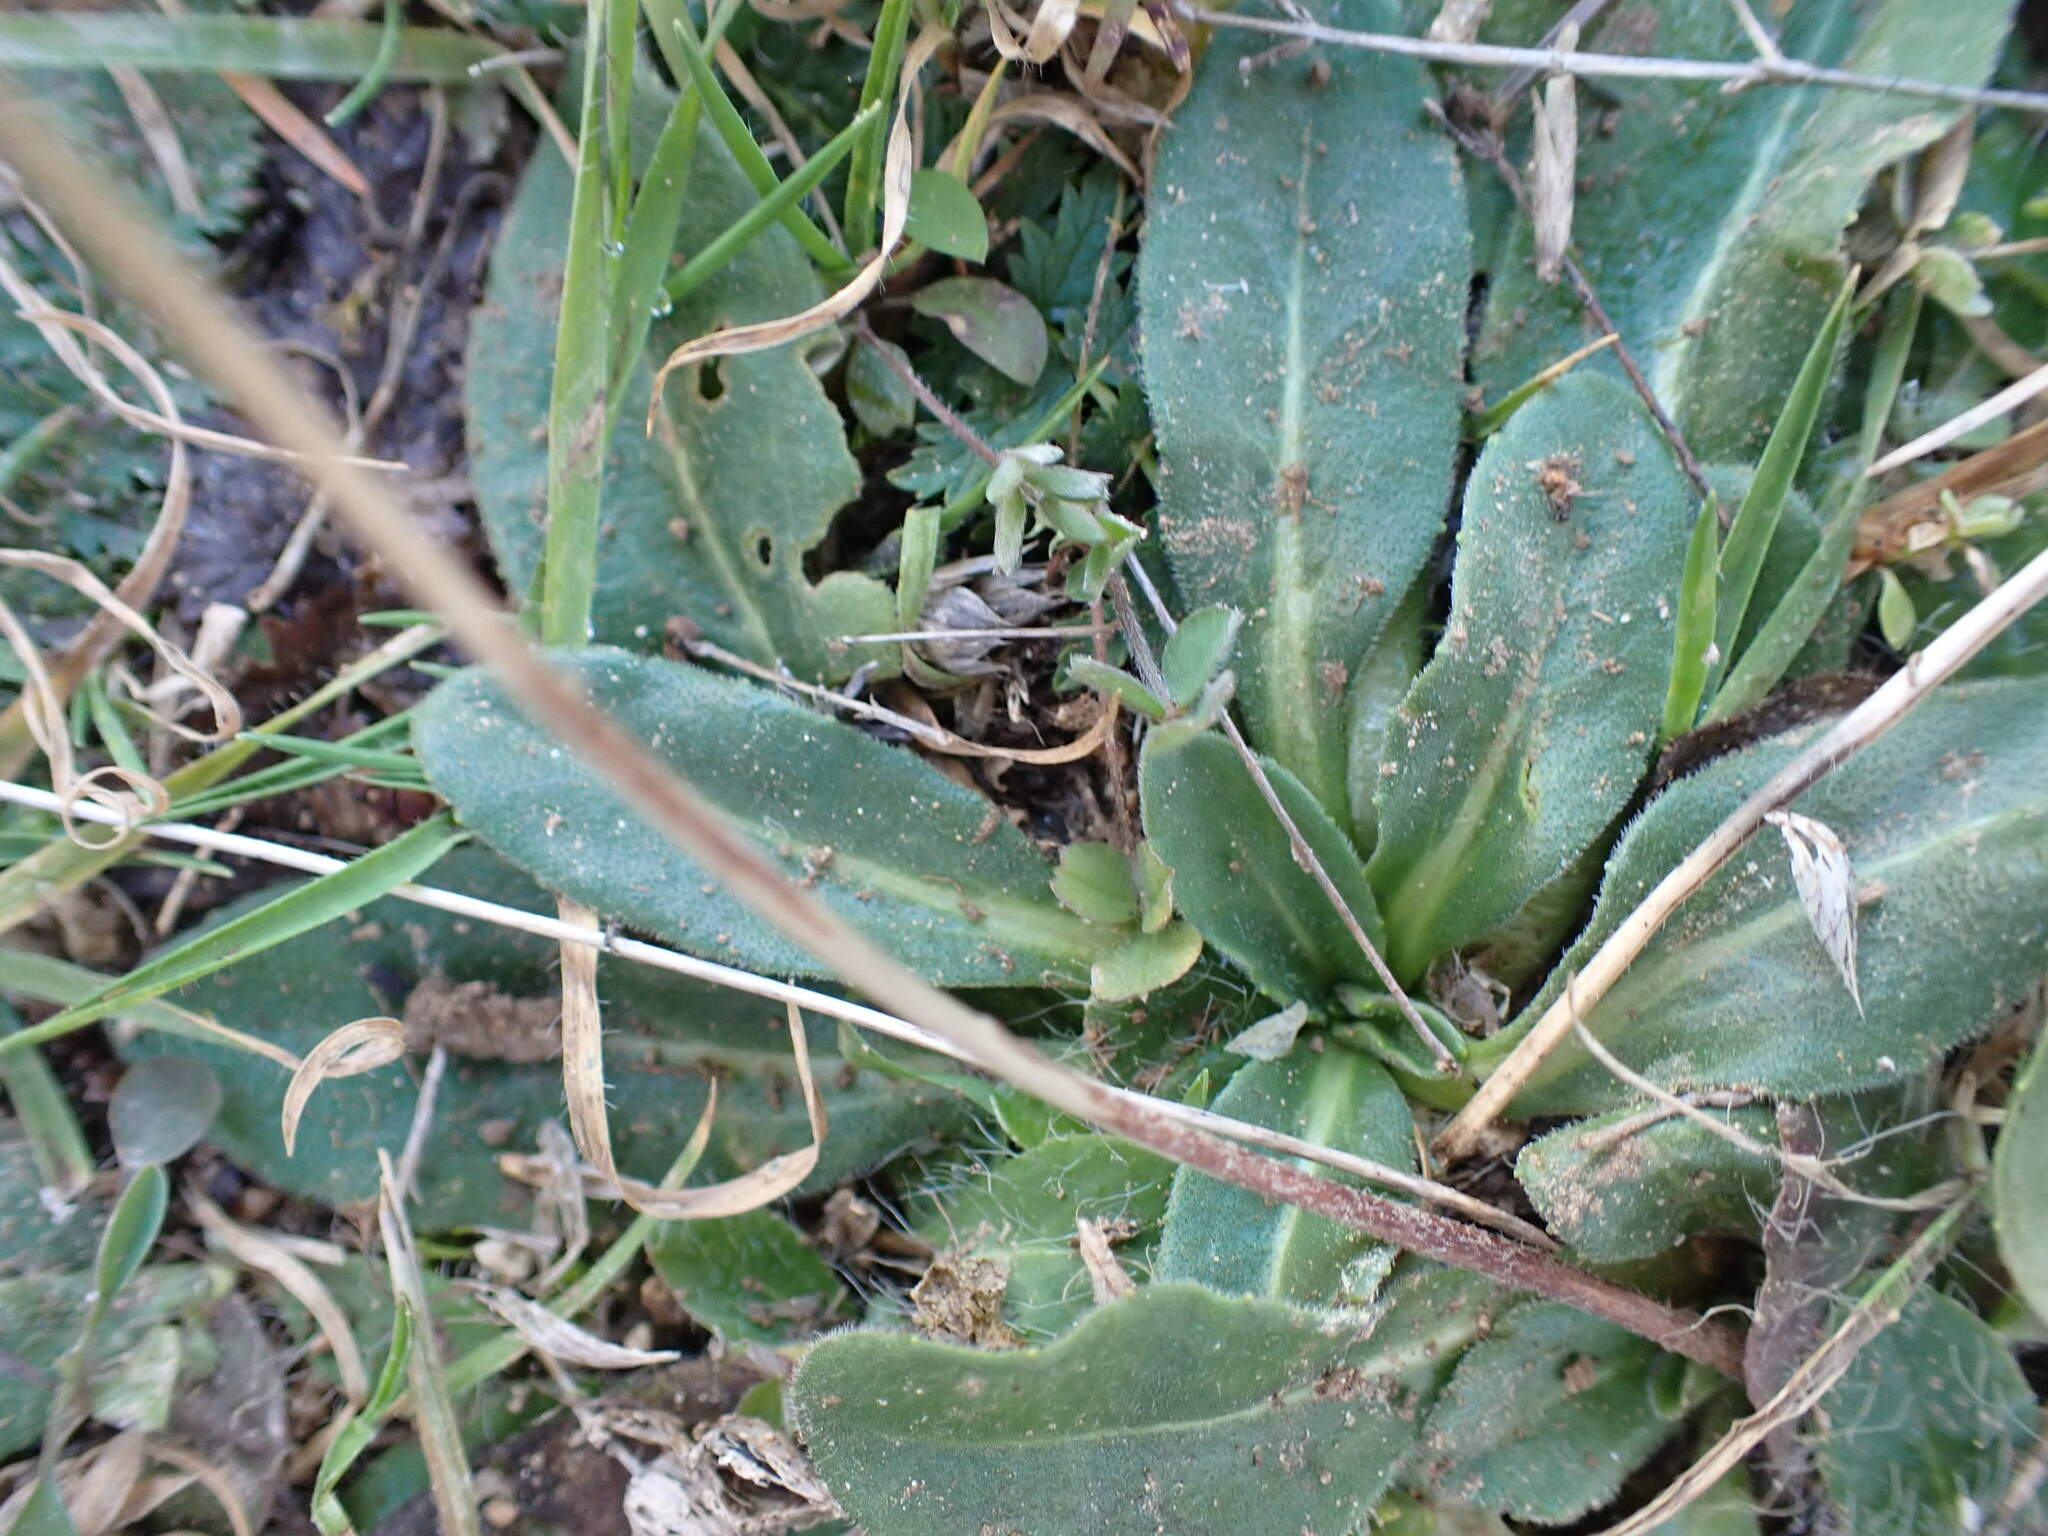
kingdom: Plantae
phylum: Tracheophyta
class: Magnoliopsida
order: Asterales
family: Asteraceae
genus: Bellis
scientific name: Bellis sylvestris
